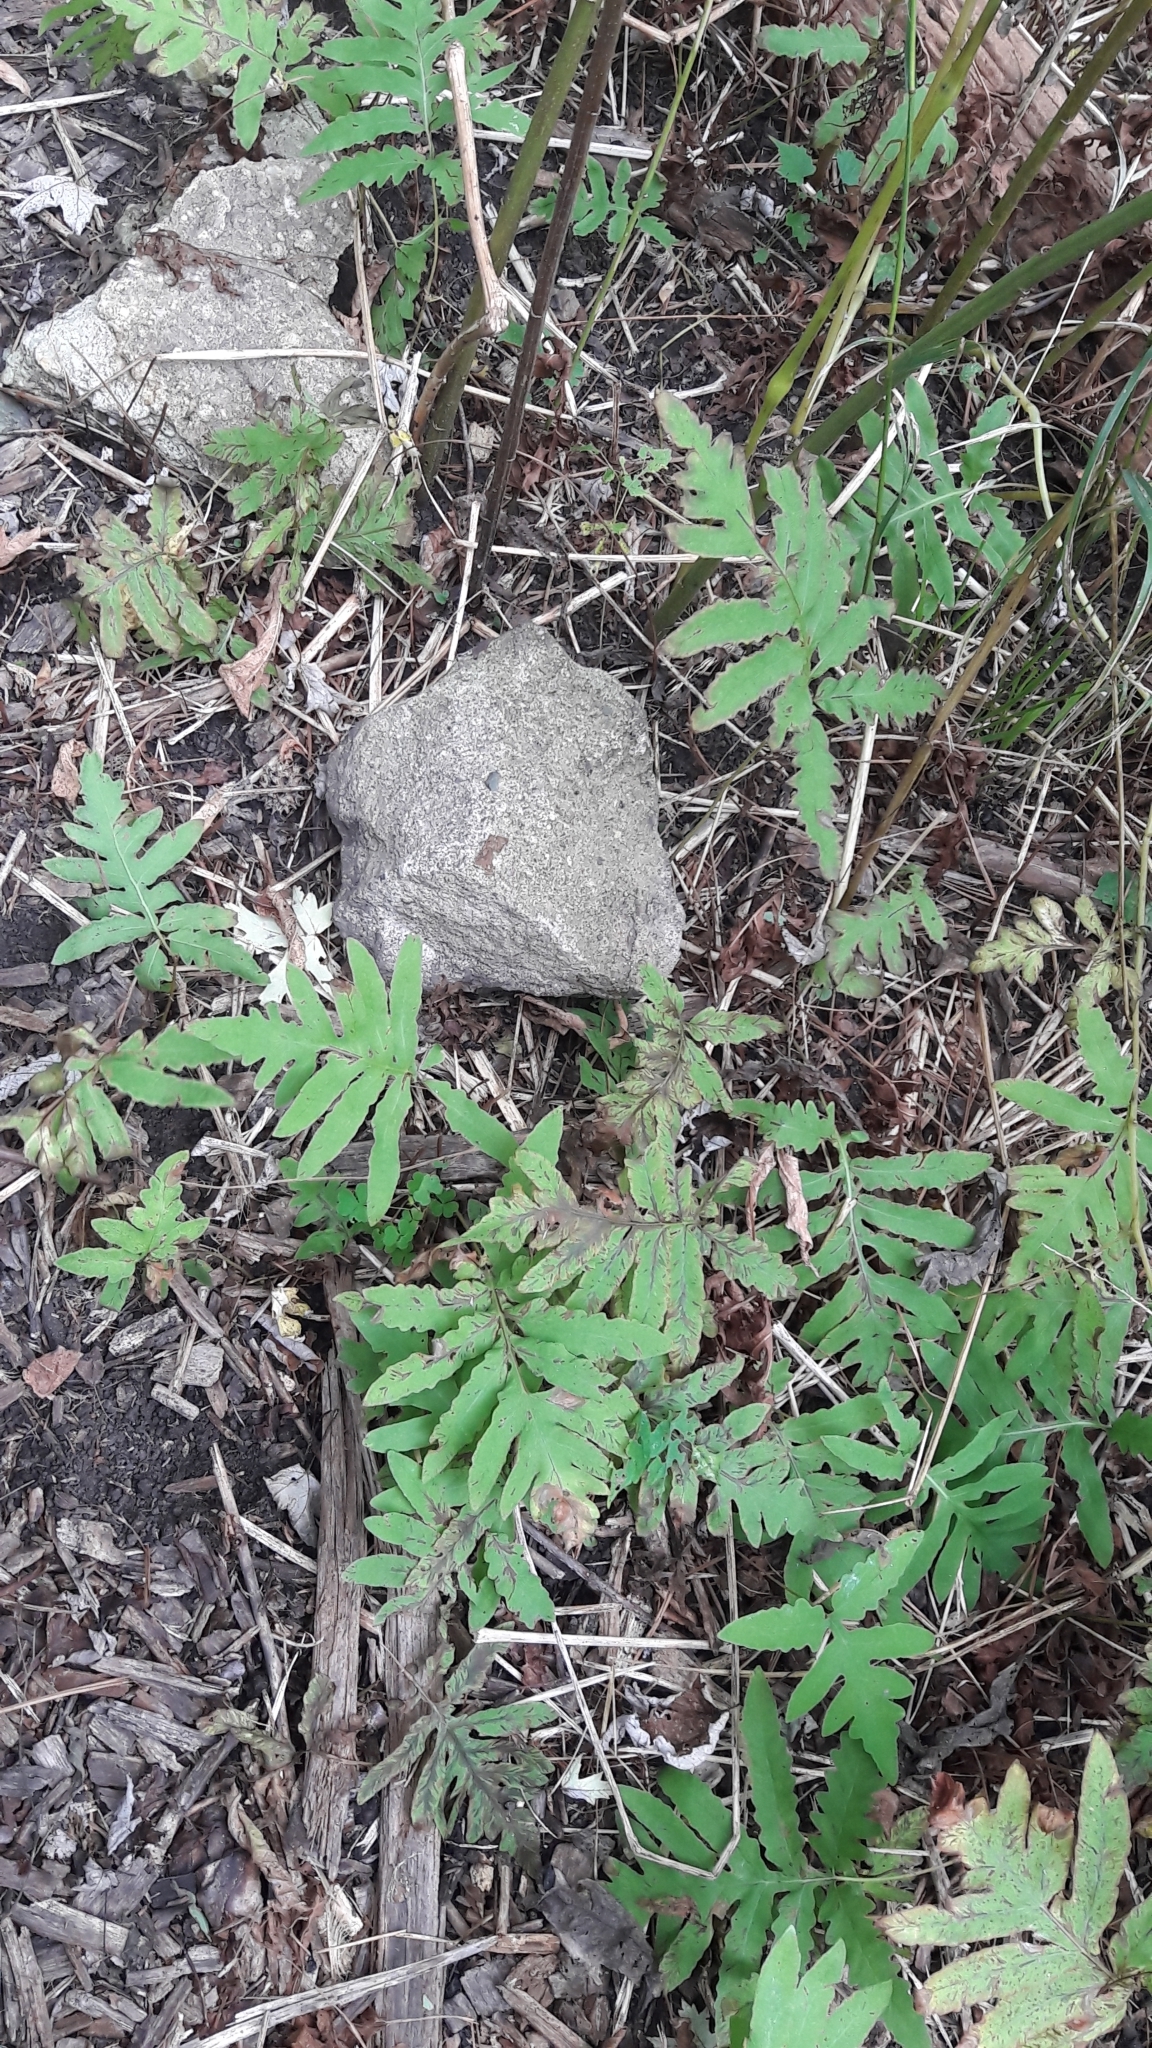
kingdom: Plantae
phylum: Tracheophyta
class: Polypodiopsida
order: Polypodiales
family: Onocleaceae
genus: Onoclea
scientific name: Onoclea sensibilis
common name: Sensitive fern
